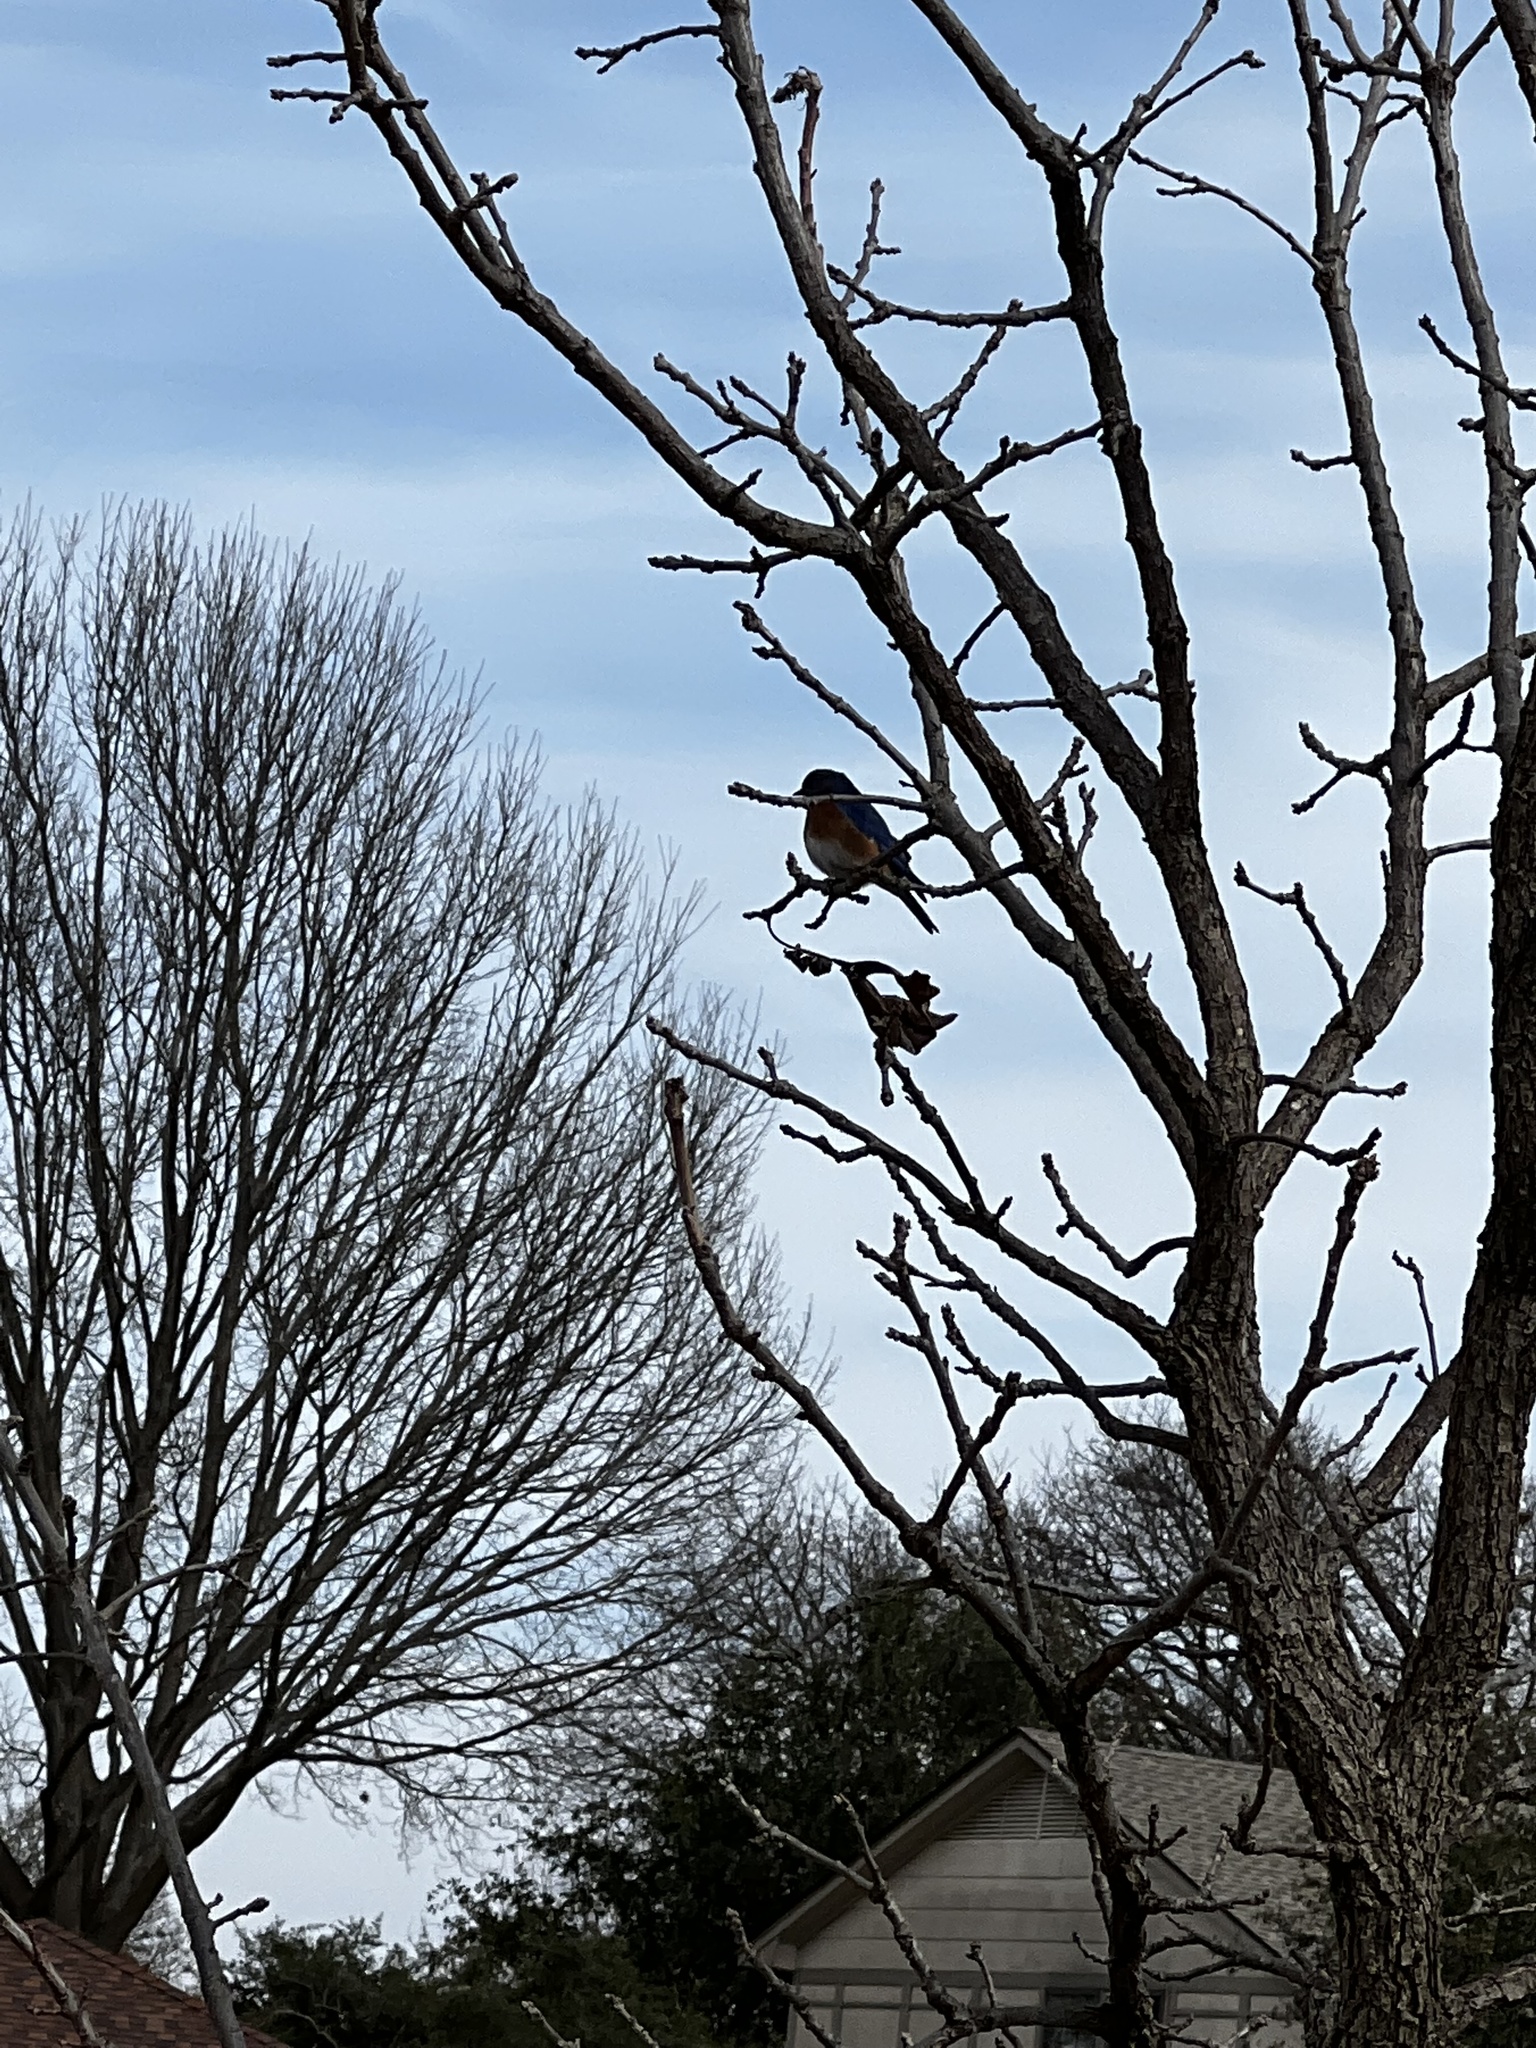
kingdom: Animalia
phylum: Chordata
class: Aves
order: Passeriformes
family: Turdidae
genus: Sialia
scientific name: Sialia sialis
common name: Eastern bluebird
